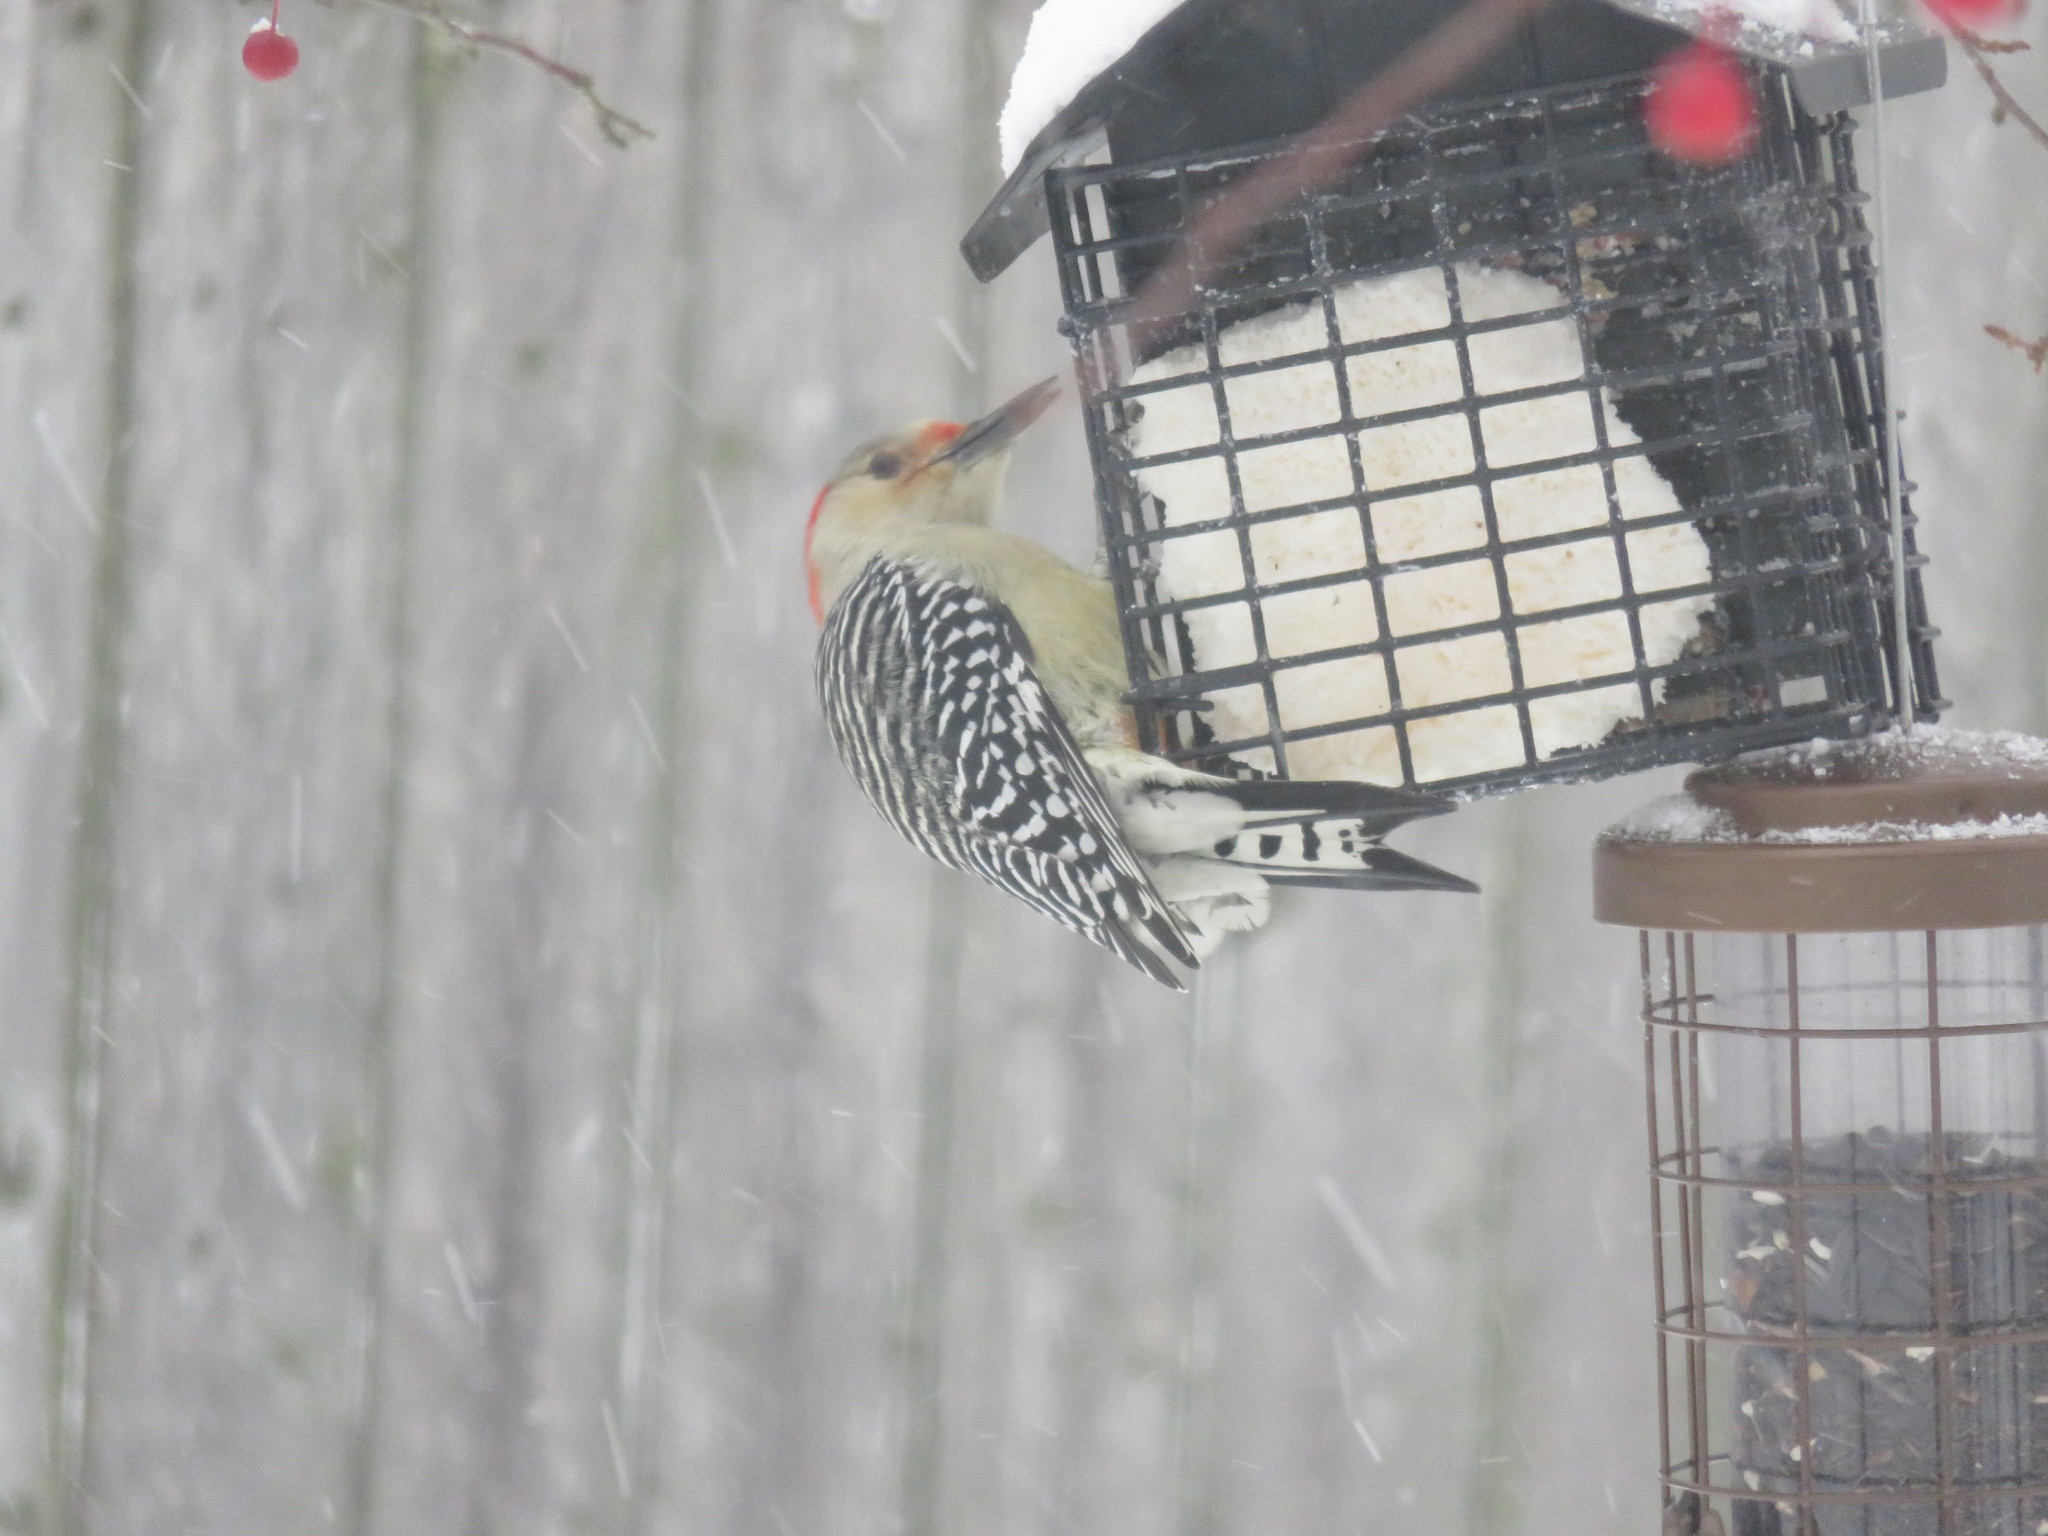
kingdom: Animalia
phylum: Chordata
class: Aves
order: Piciformes
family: Picidae
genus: Melanerpes
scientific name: Melanerpes carolinus
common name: Red-bellied woodpecker
